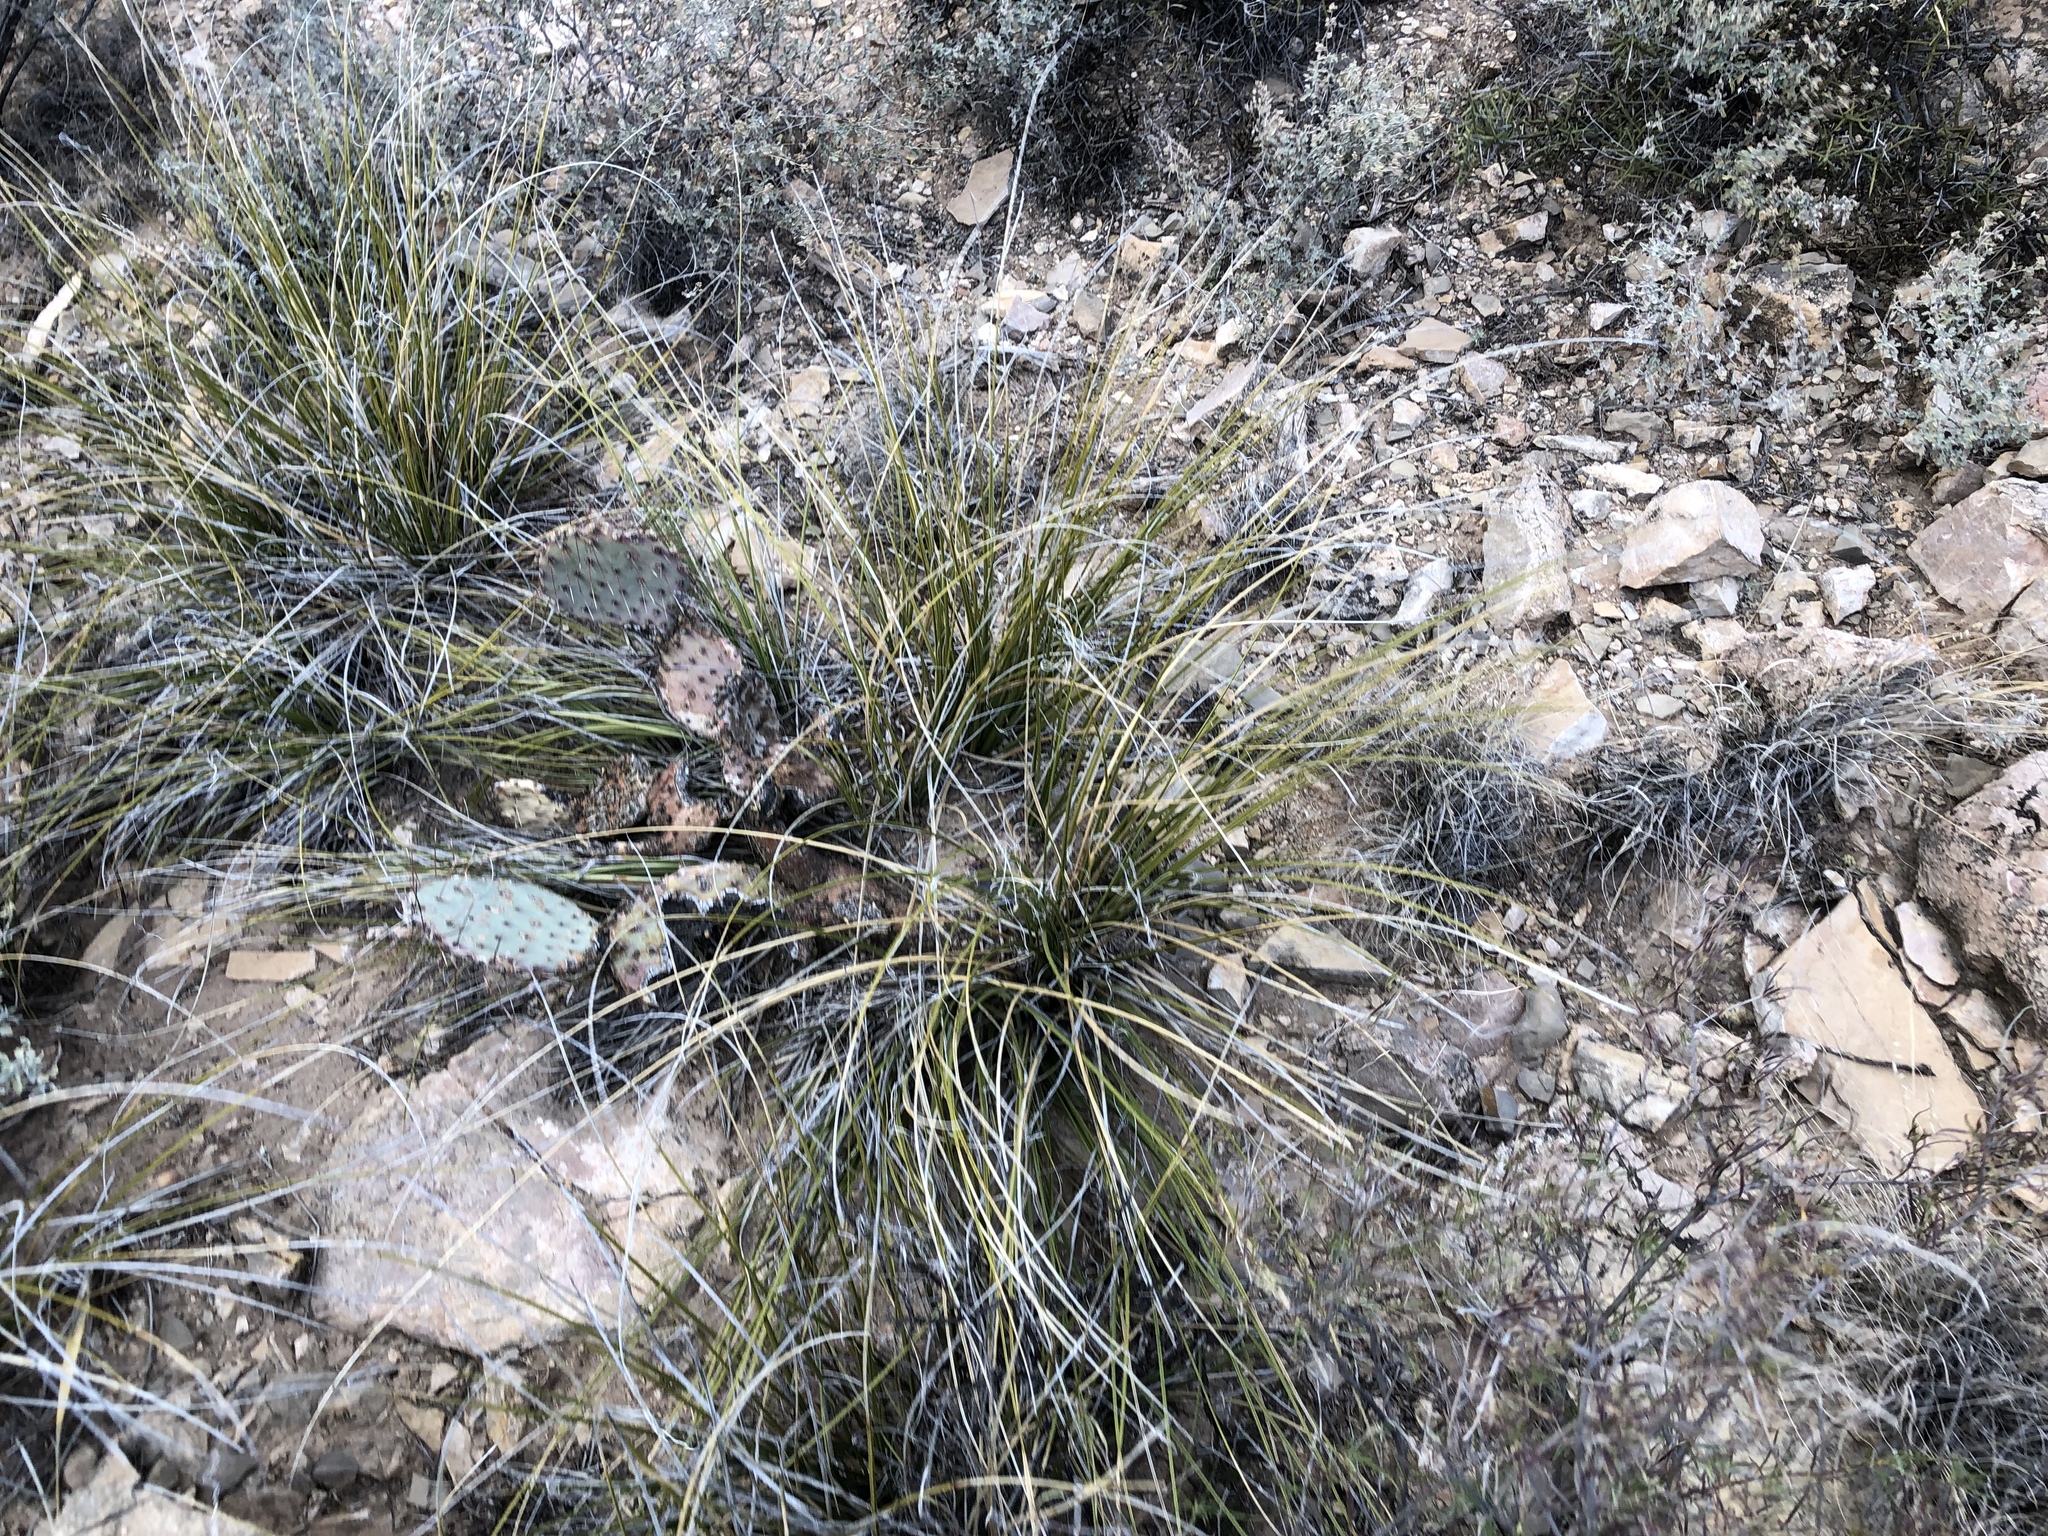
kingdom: Plantae
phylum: Tracheophyta
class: Liliopsida
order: Asparagales
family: Asparagaceae
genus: Nolina
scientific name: Nolina texana
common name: Texas sacahuiste
